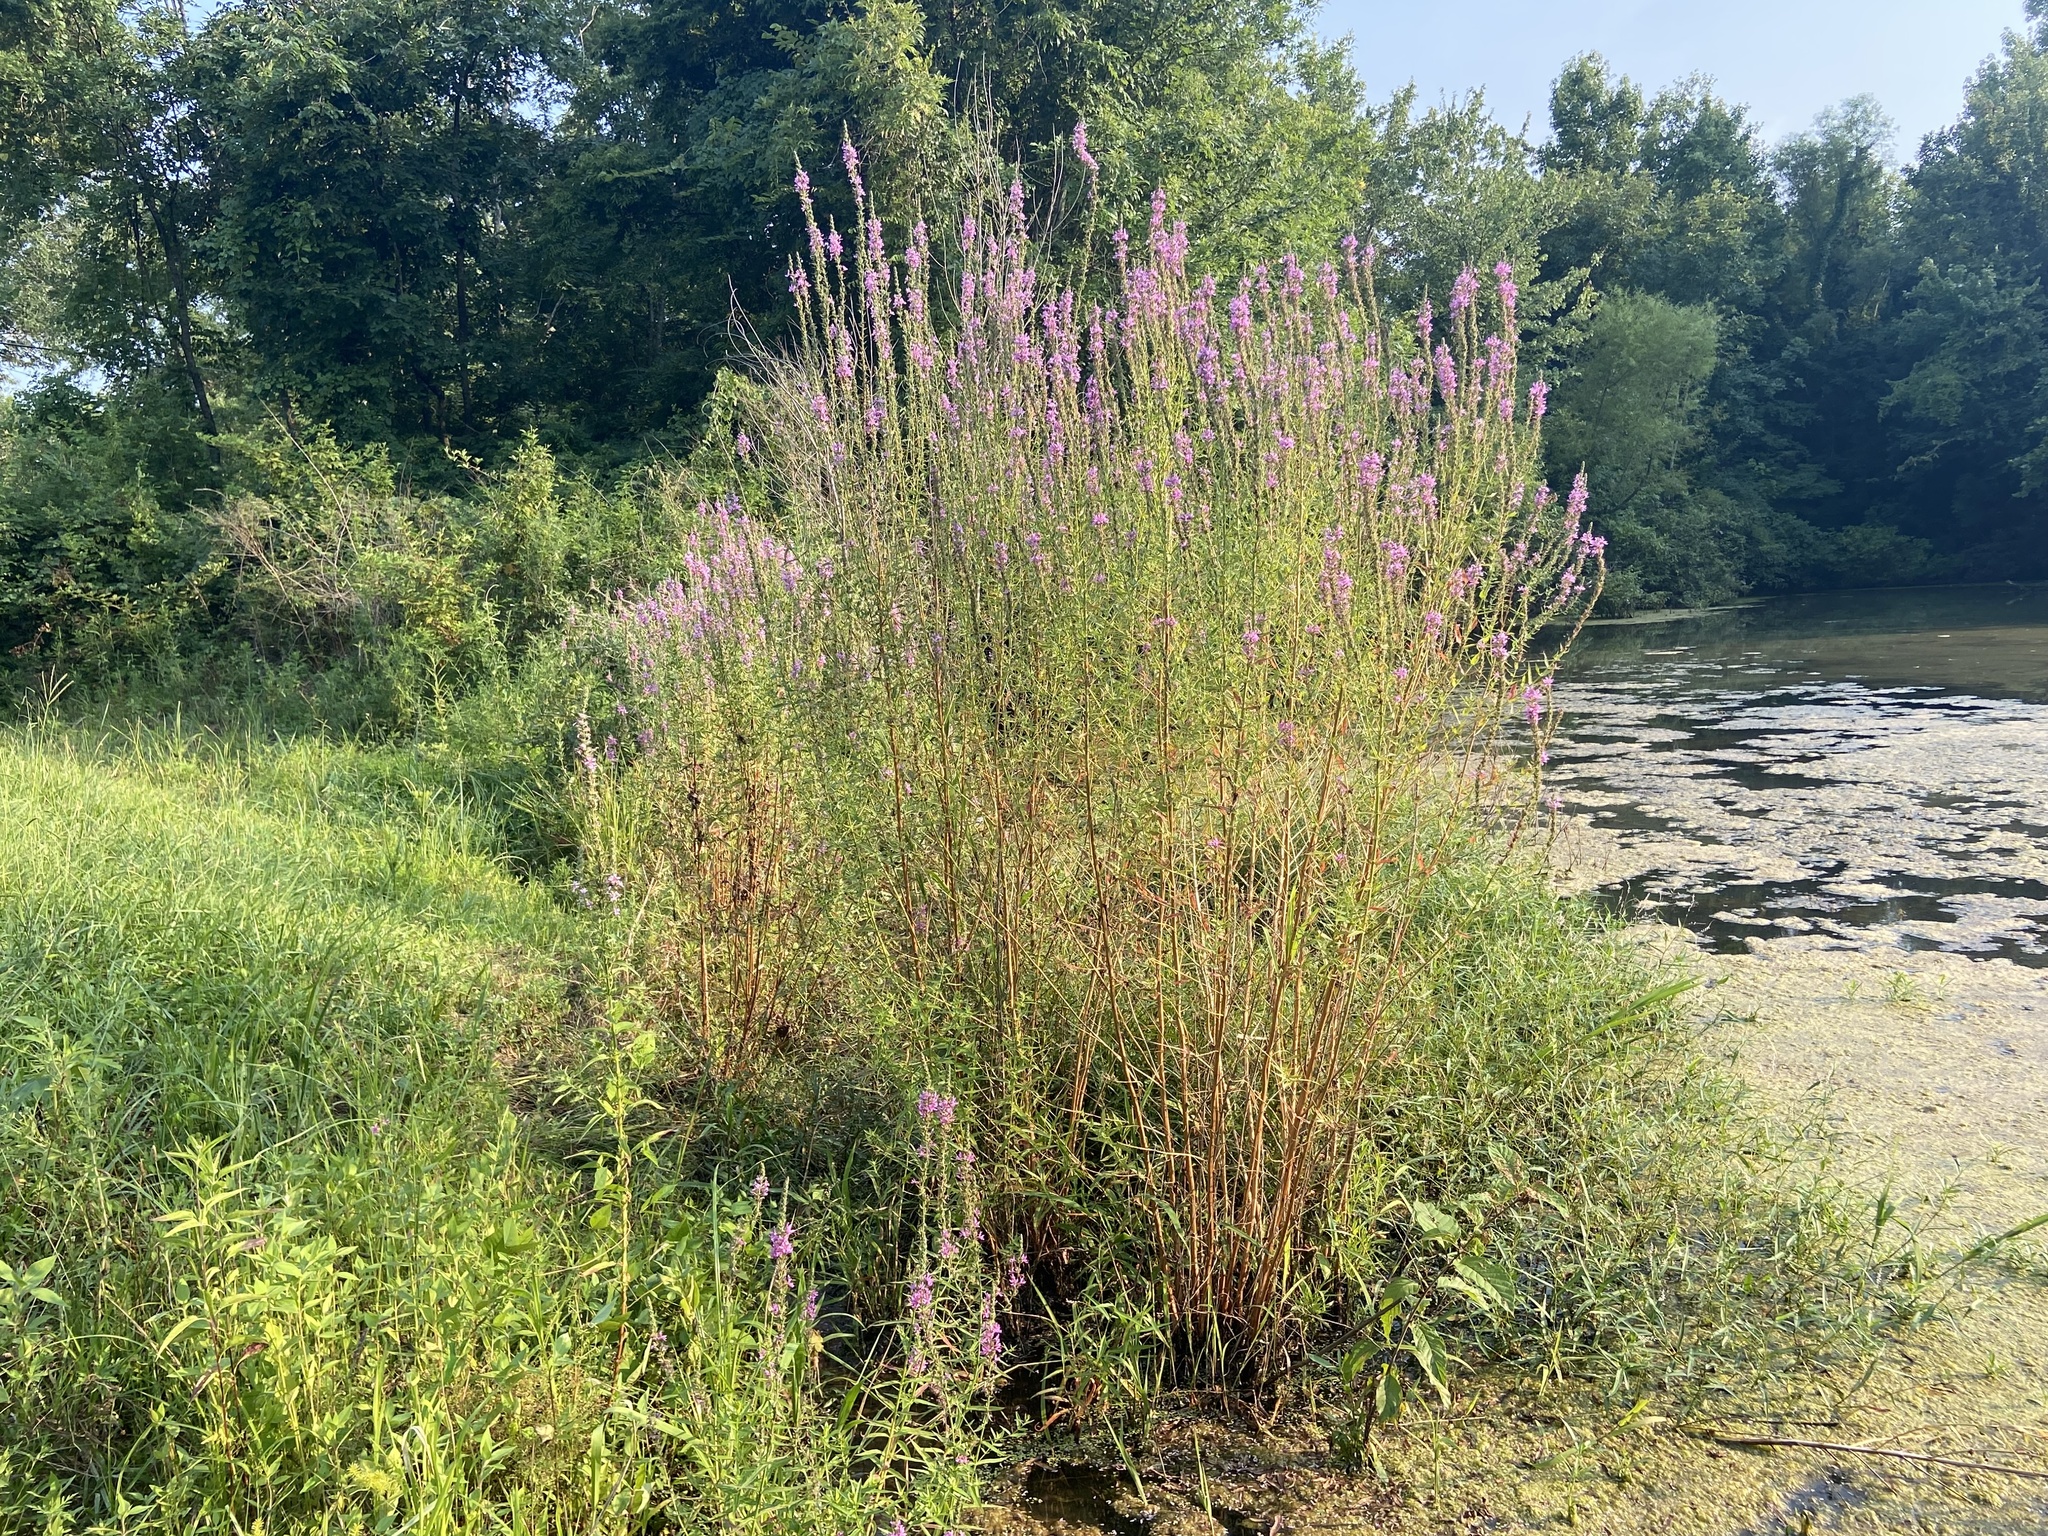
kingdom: Plantae
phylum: Tracheophyta
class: Magnoliopsida
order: Myrtales
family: Lythraceae
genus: Lythrum
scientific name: Lythrum salicaria
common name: Purple loosestrife
